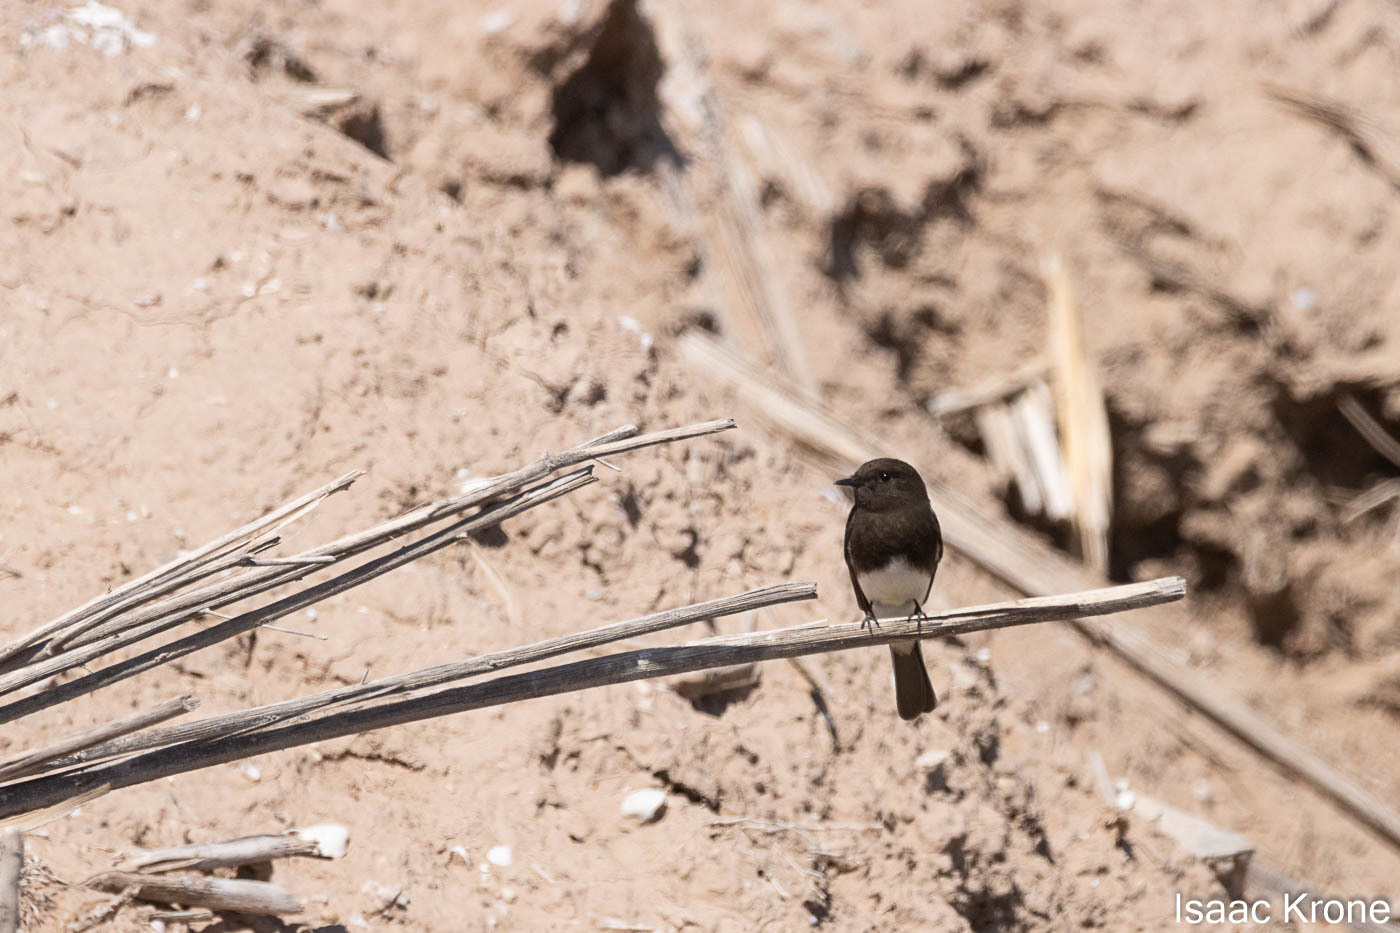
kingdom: Animalia
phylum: Chordata
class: Aves
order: Passeriformes
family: Tyrannidae
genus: Sayornis
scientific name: Sayornis nigricans
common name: Black phoebe
